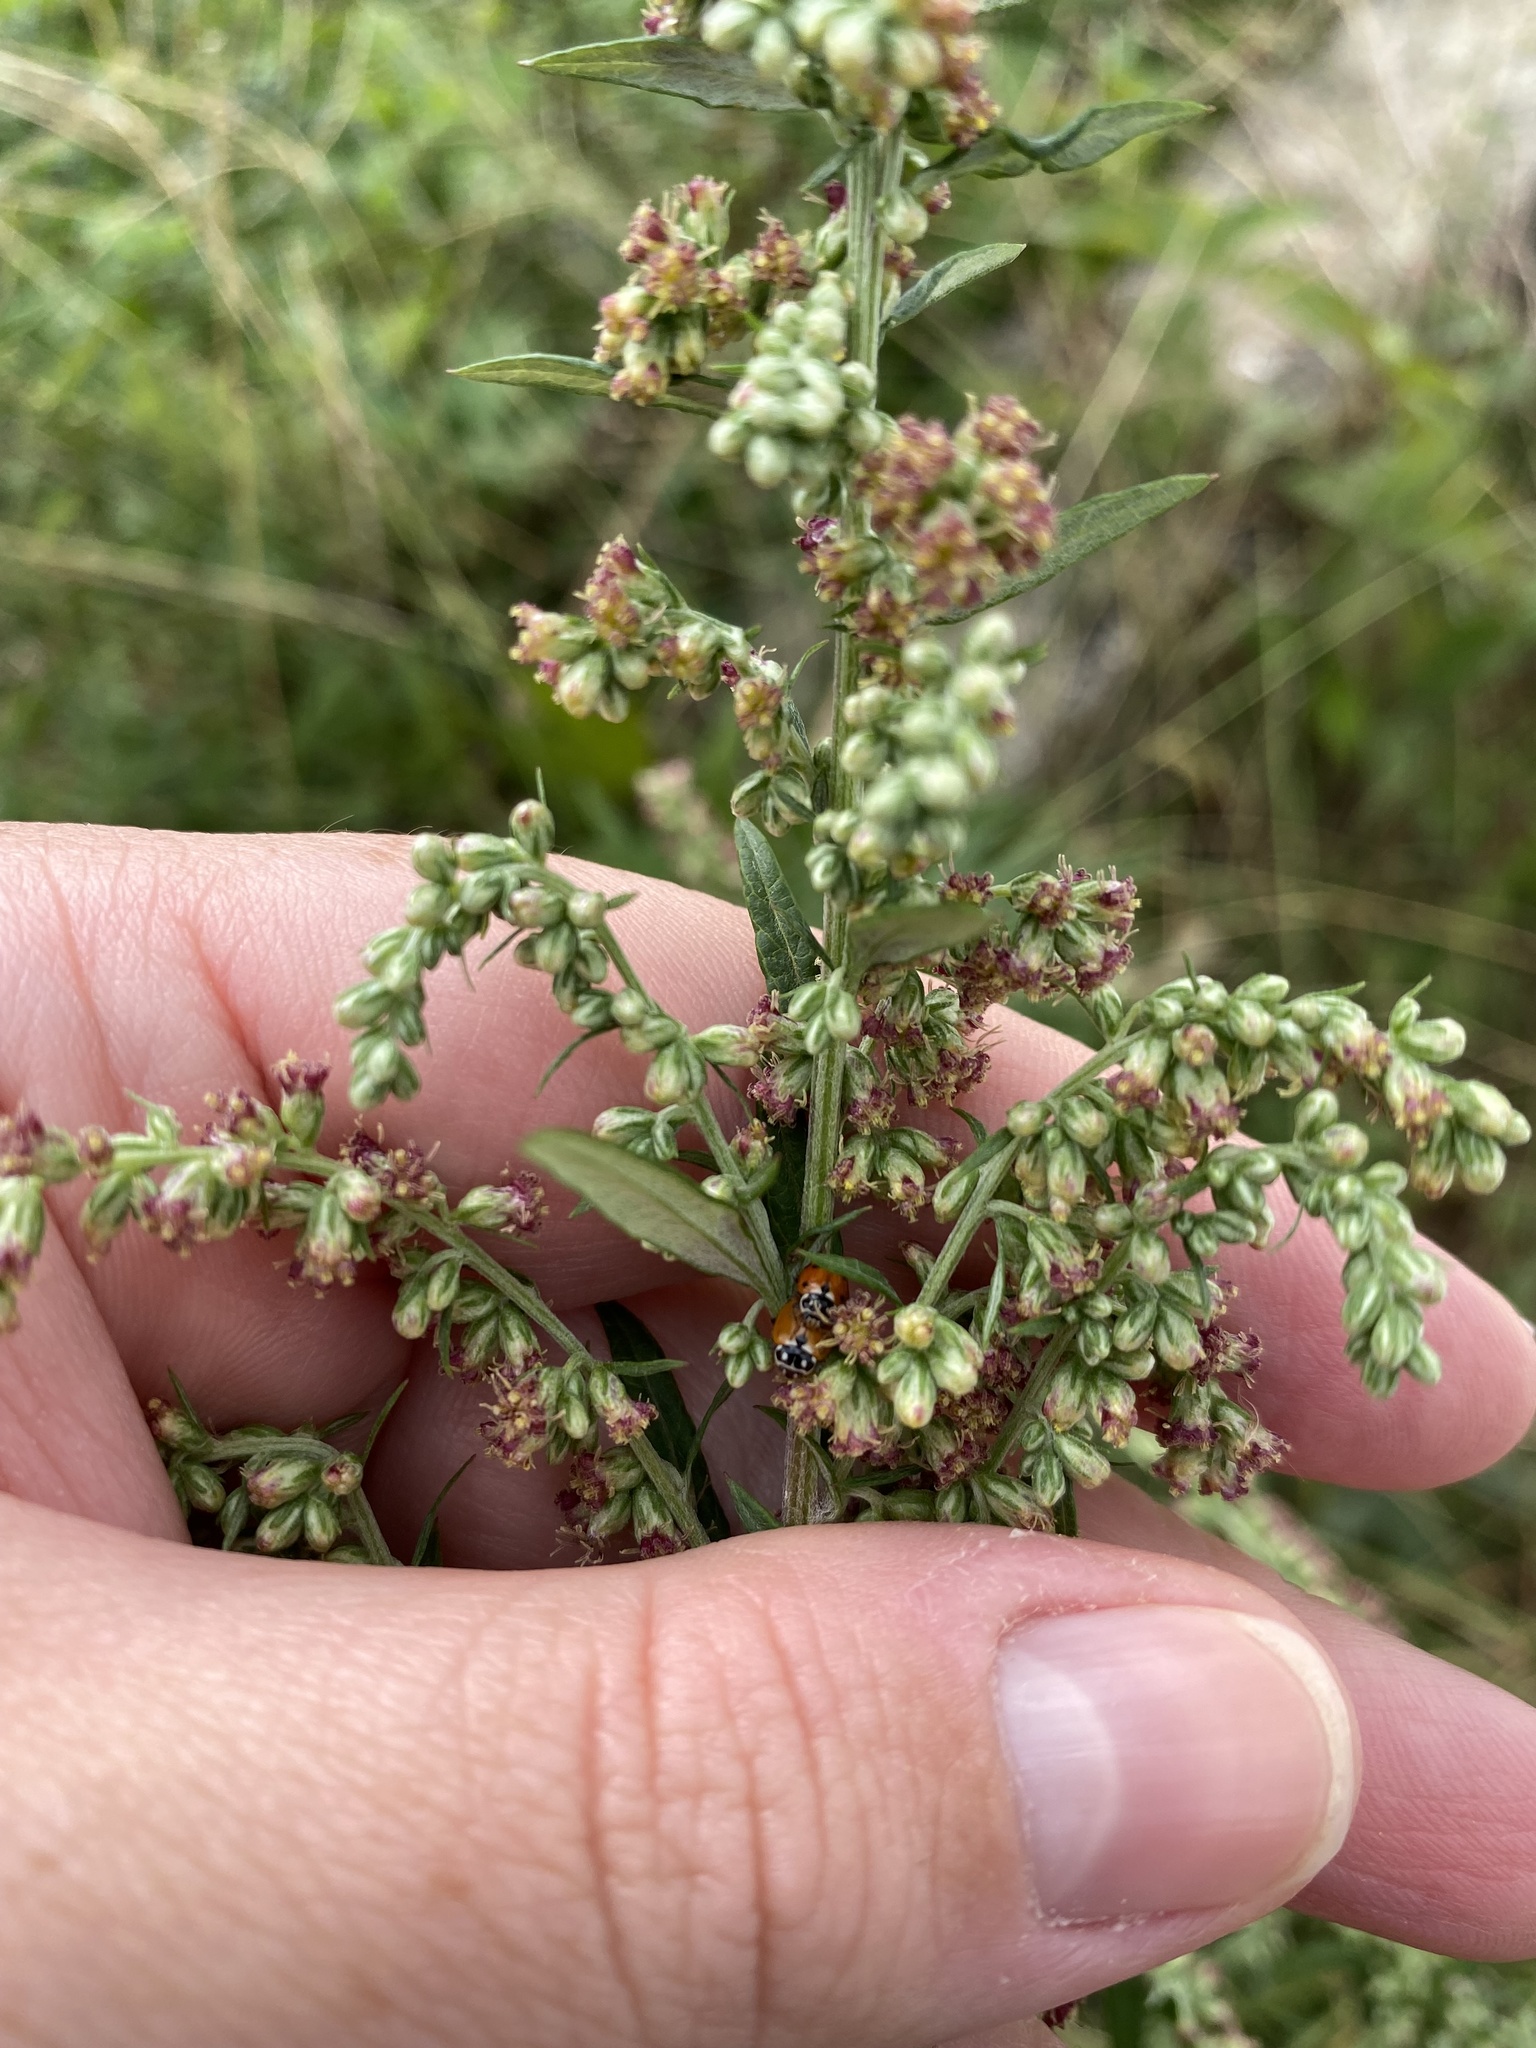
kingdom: Plantae
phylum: Tracheophyta
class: Magnoliopsida
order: Asterales
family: Asteraceae
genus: Artemisia
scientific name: Artemisia vulgaris
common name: Mugwort
